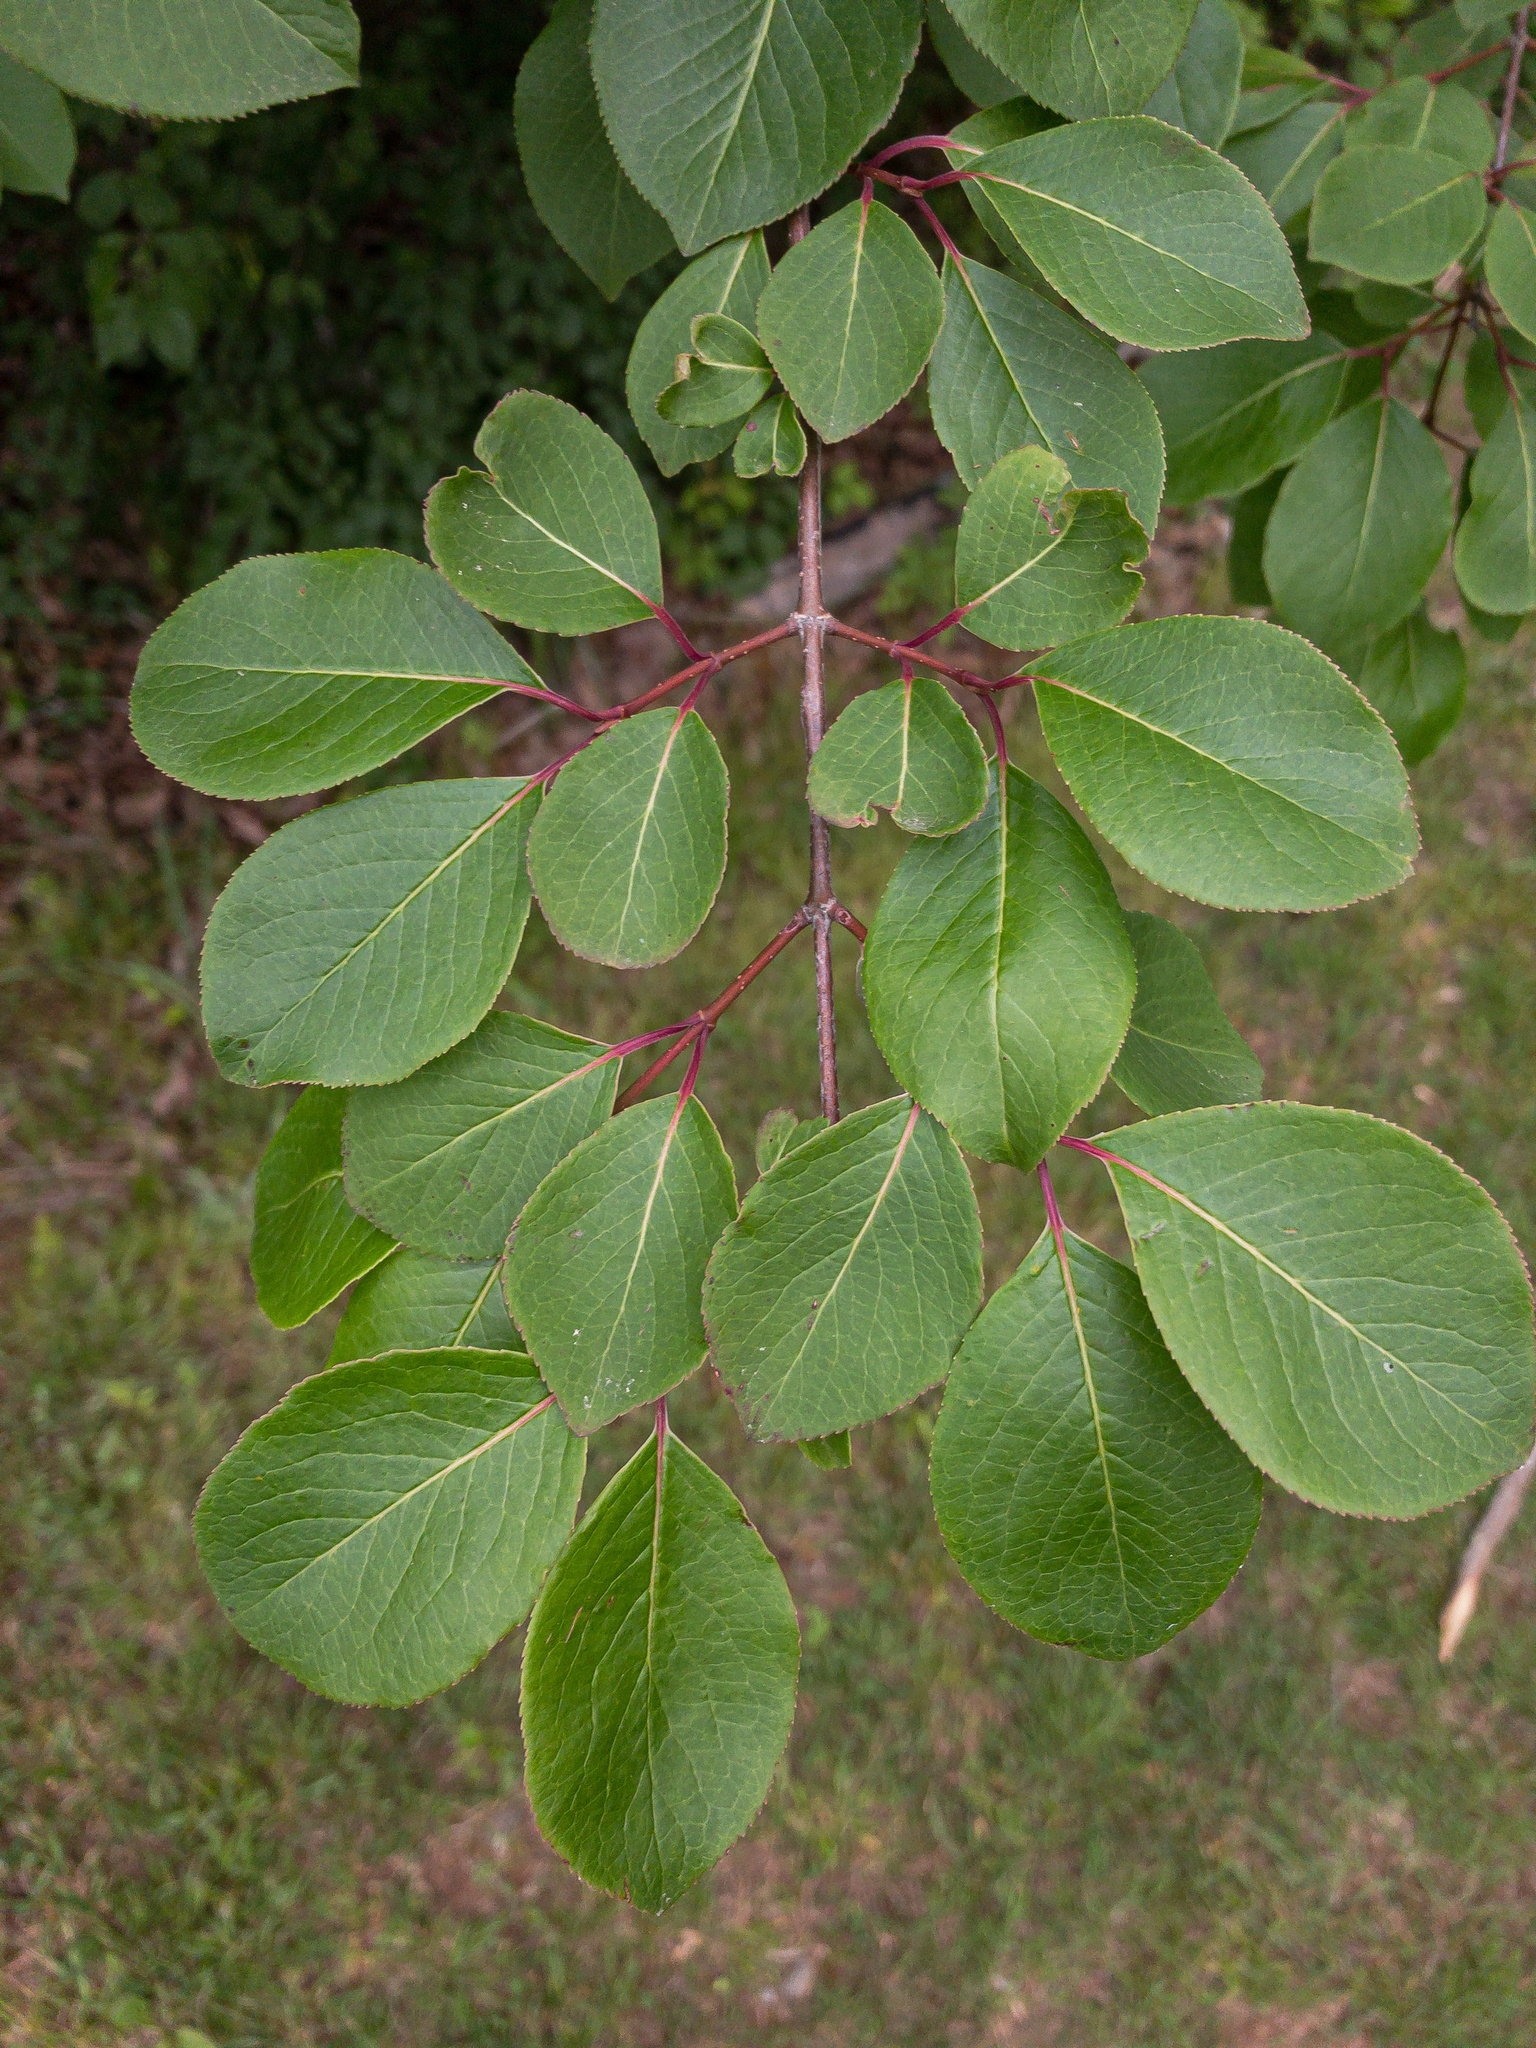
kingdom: Plantae
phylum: Tracheophyta
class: Magnoliopsida
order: Dipsacales
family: Viburnaceae
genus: Viburnum
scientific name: Viburnum rufidulum
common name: Blue haw
